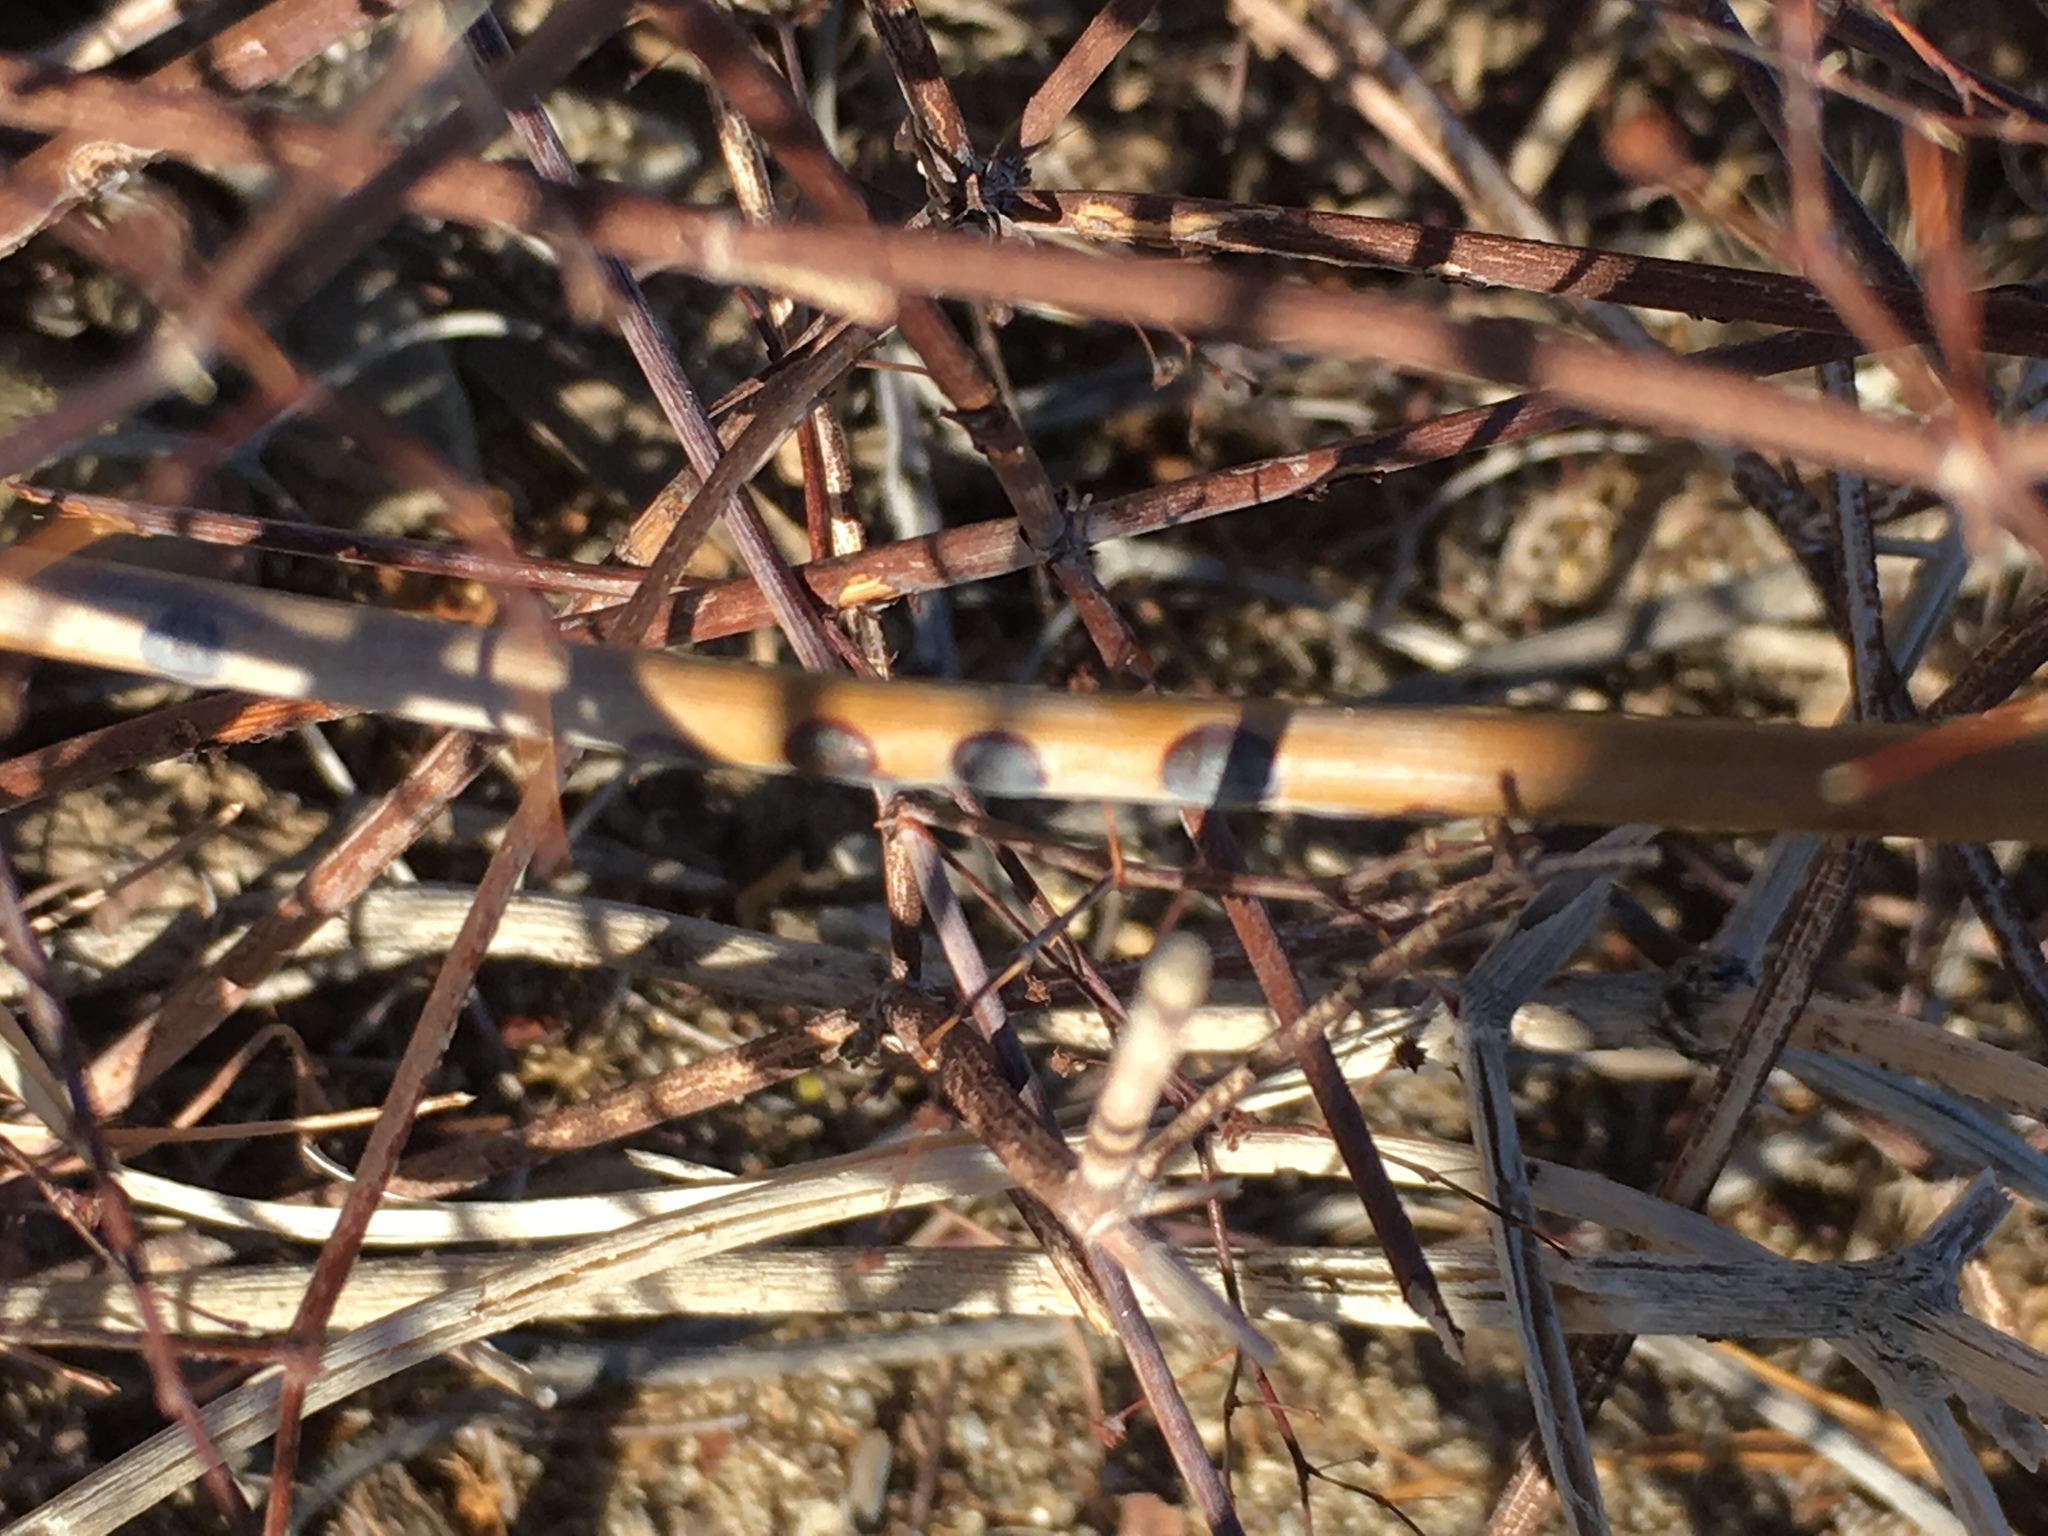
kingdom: Plantae
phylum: Tracheophyta
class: Magnoliopsida
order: Caryophyllales
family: Polygonaceae
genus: Eriogonum
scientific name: Eriogonum inflatum
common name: Desert trumpet
